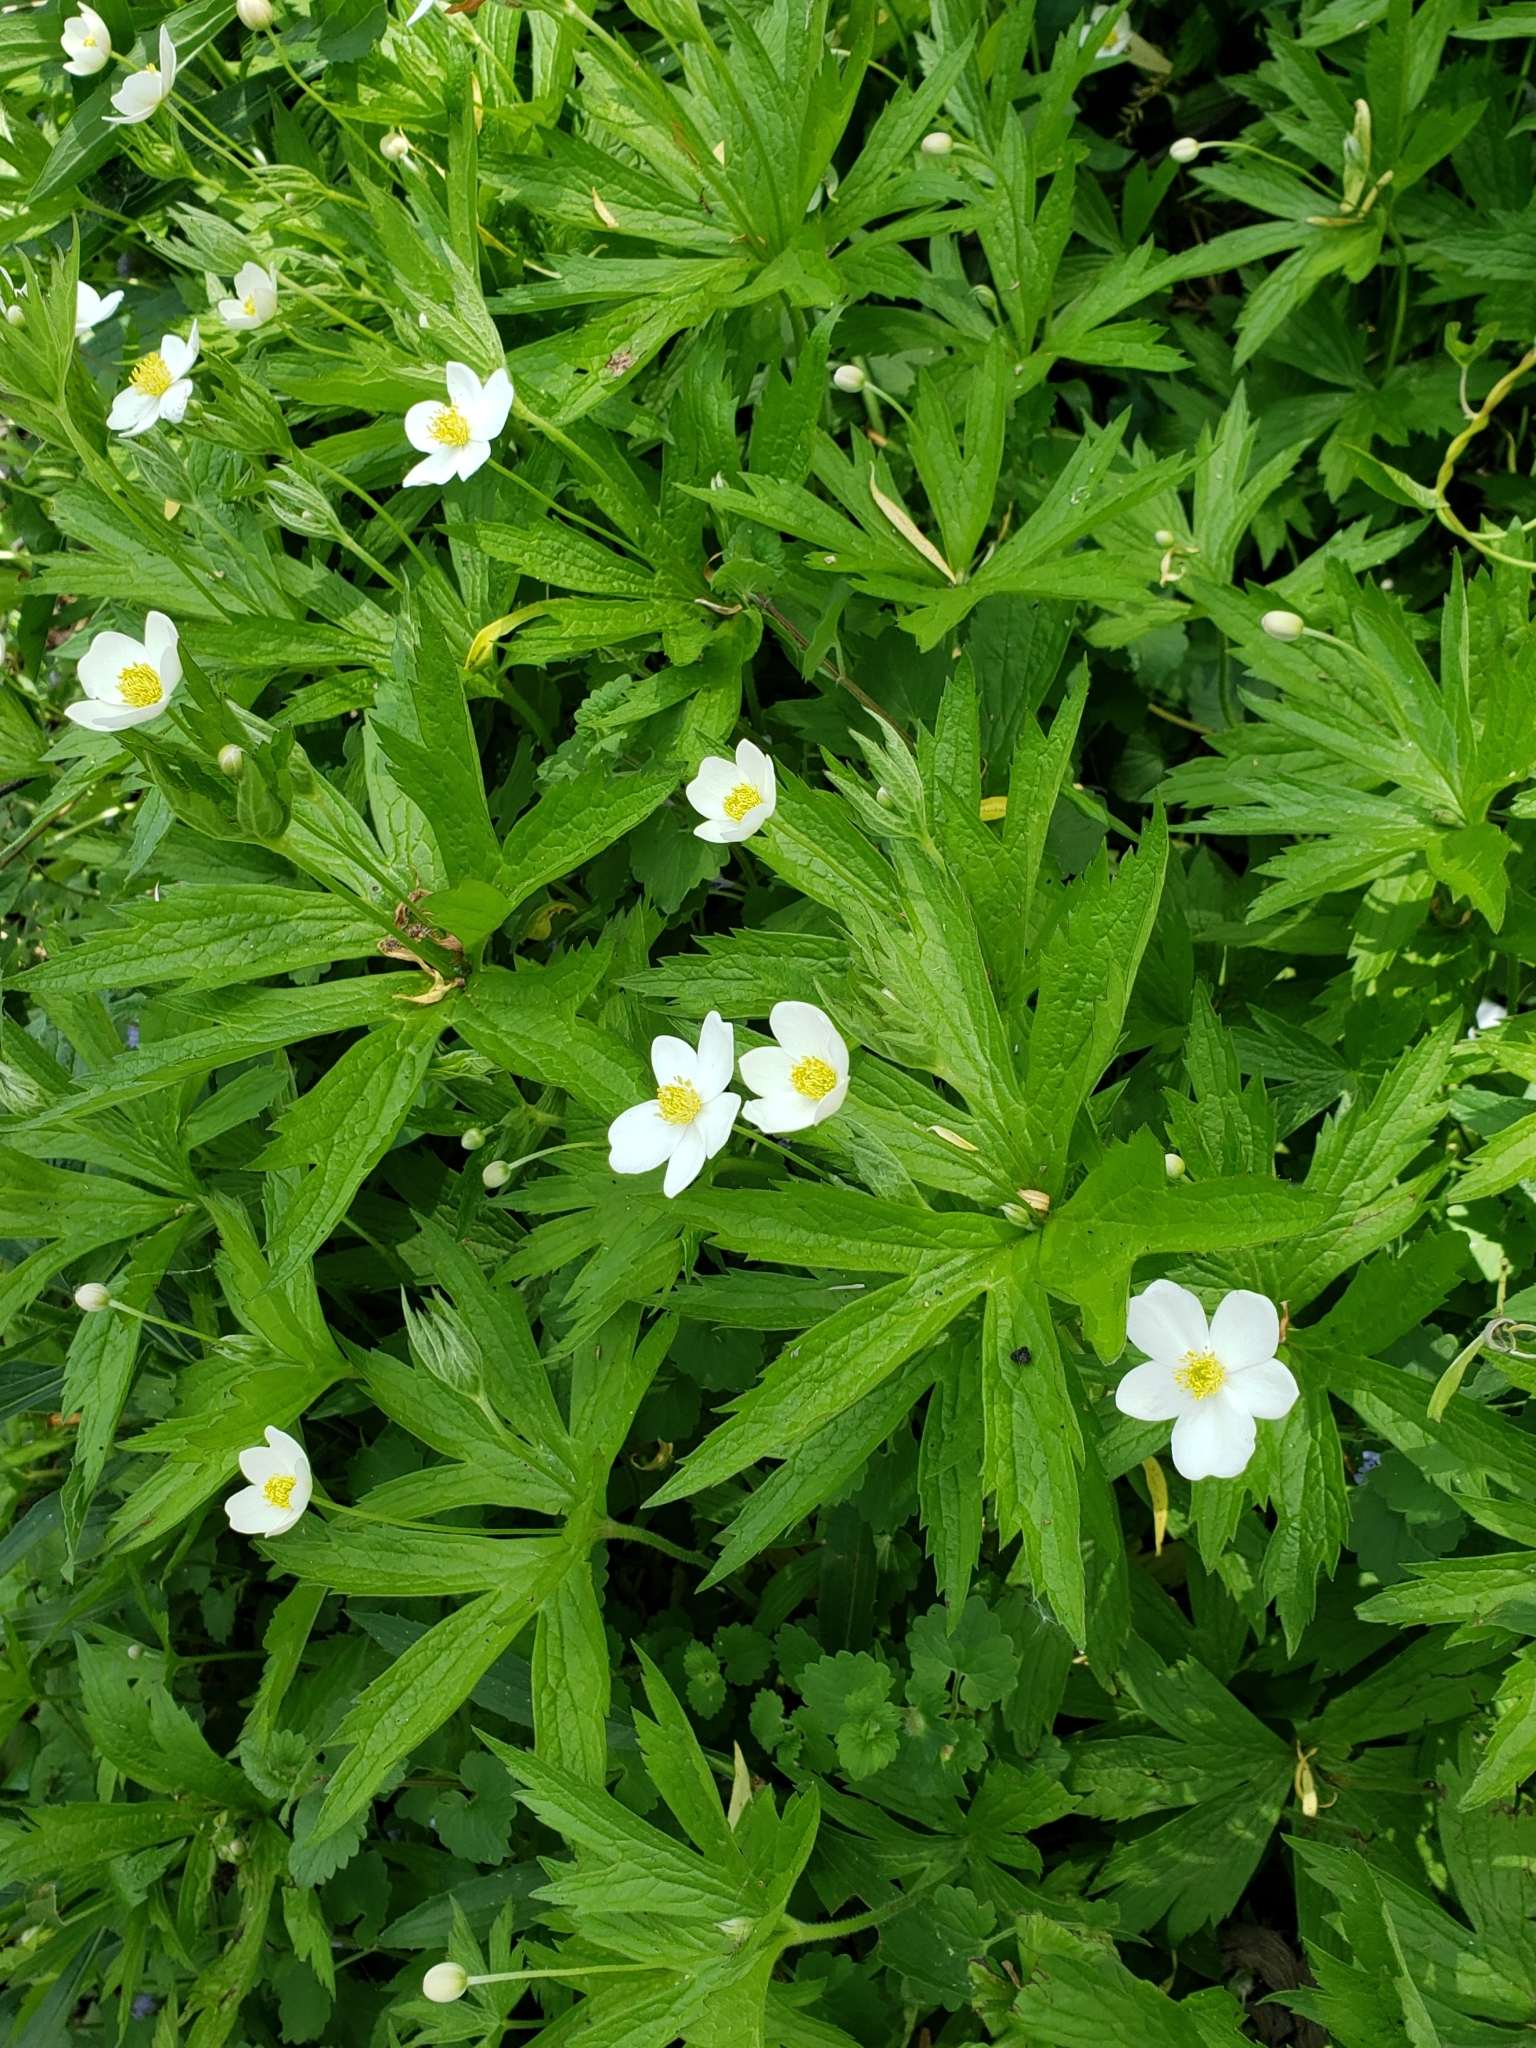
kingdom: Plantae
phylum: Tracheophyta
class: Magnoliopsida
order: Ranunculales
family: Ranunculaceae
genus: Anemonastrum
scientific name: Anemonastrum canadense
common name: Canada anemone
